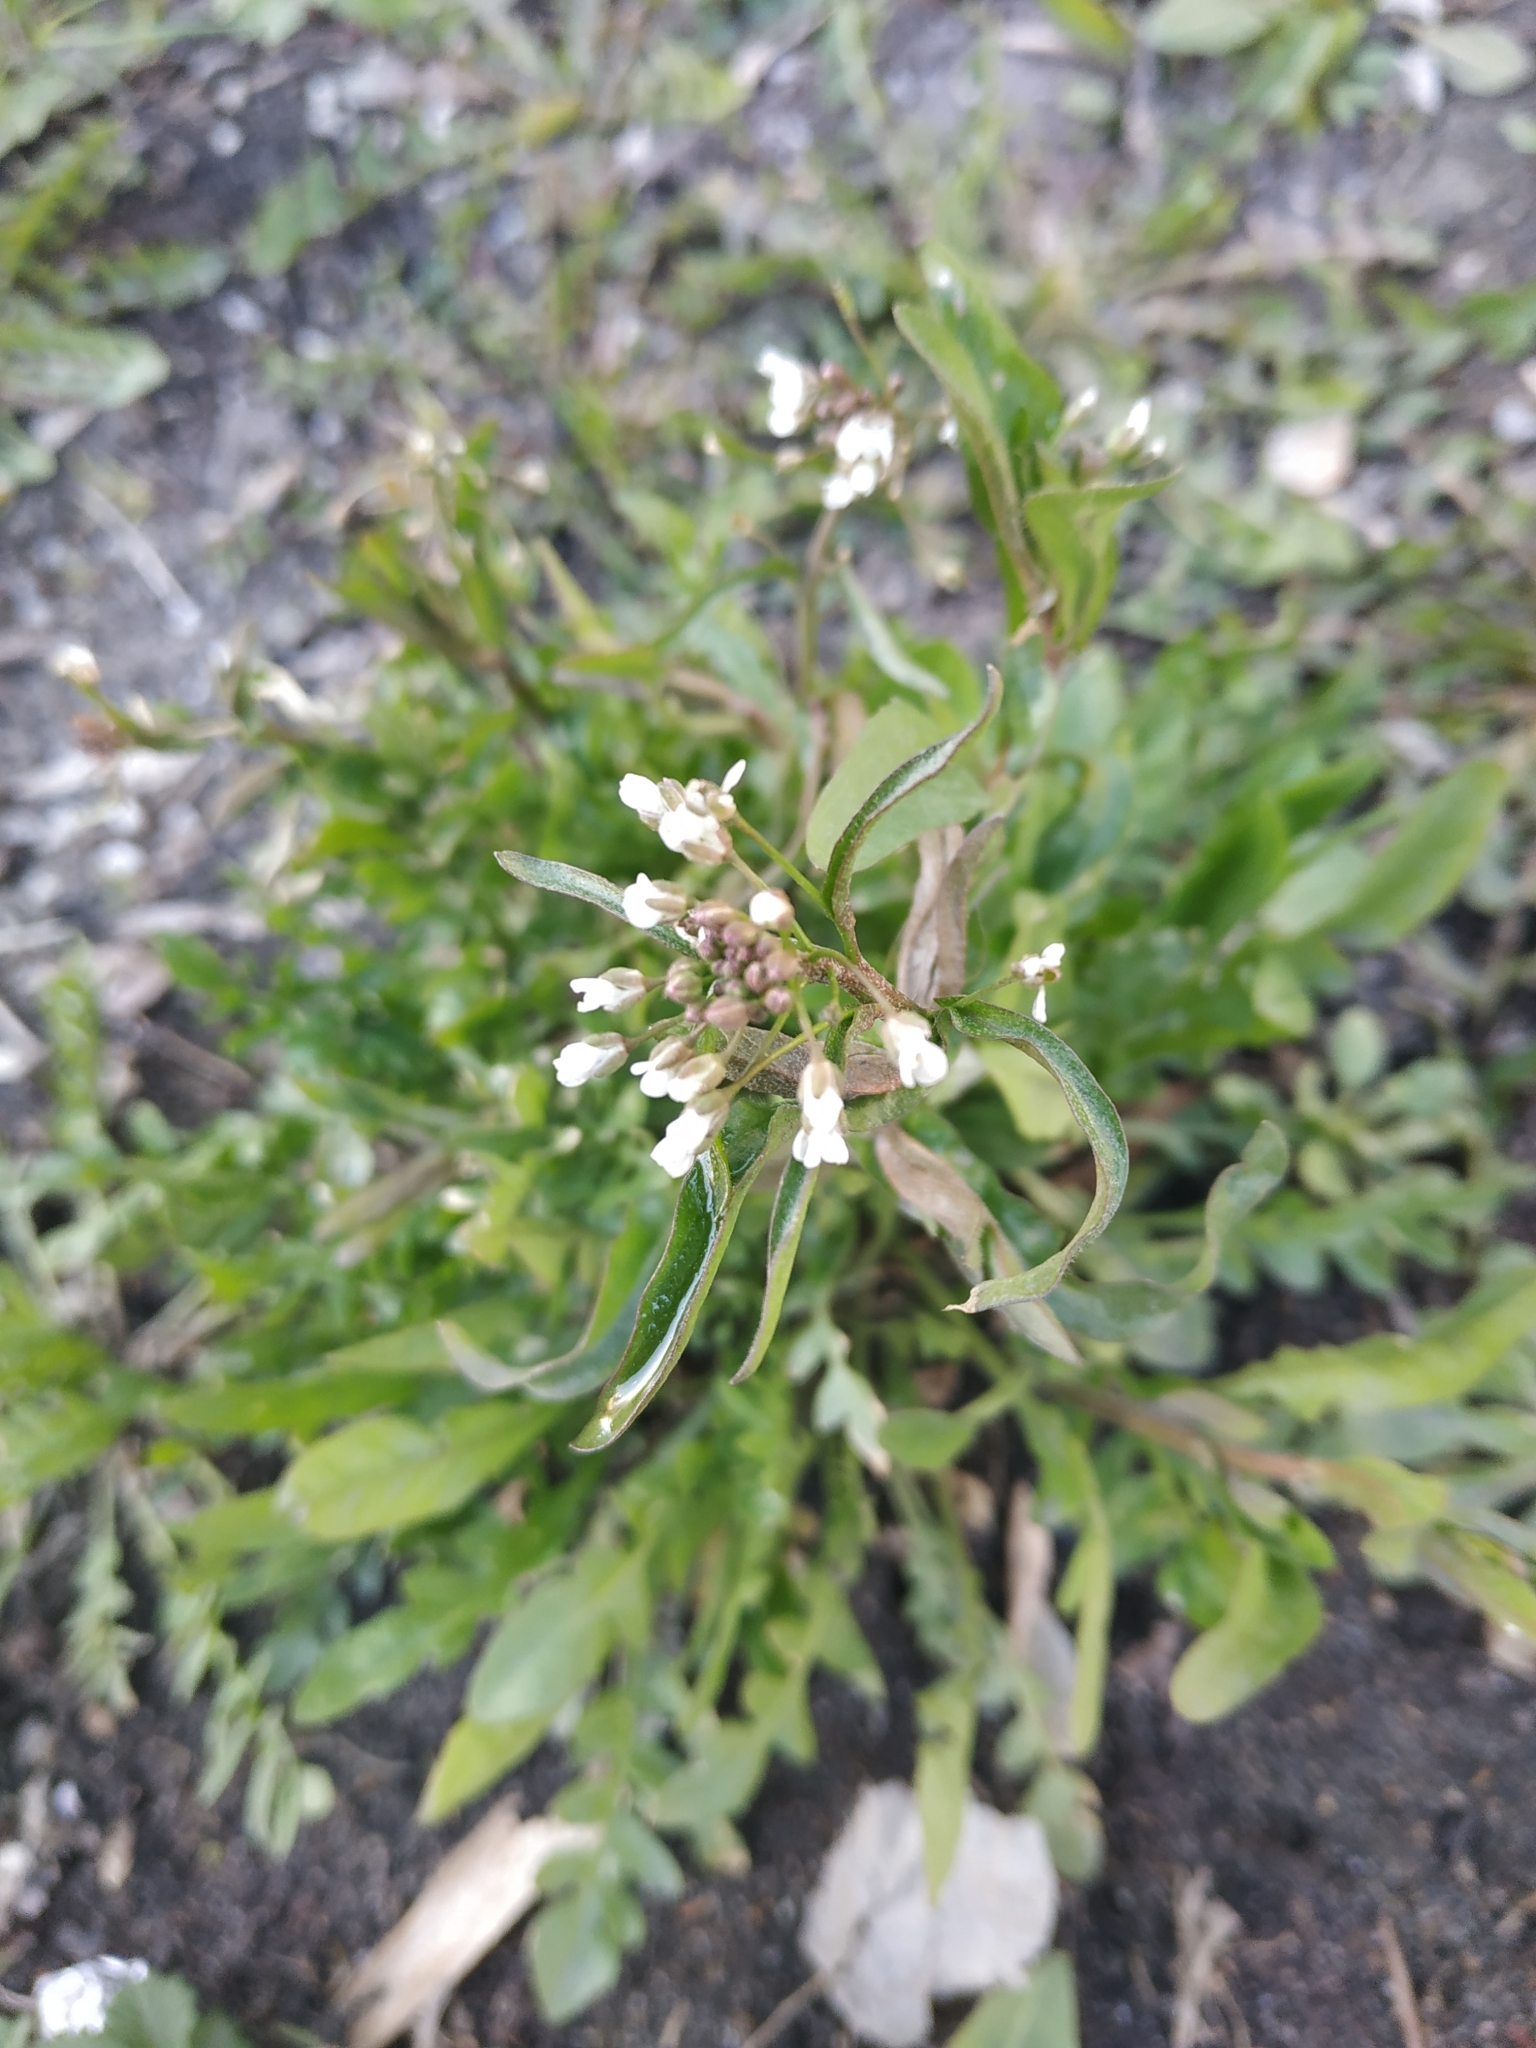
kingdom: Plantae
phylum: Tracheophyta
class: Magnoliopsida
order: Brassicales
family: Brassicaceae
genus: Capsella
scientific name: Capsella bursa-pastoris
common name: Shepherd's purse
